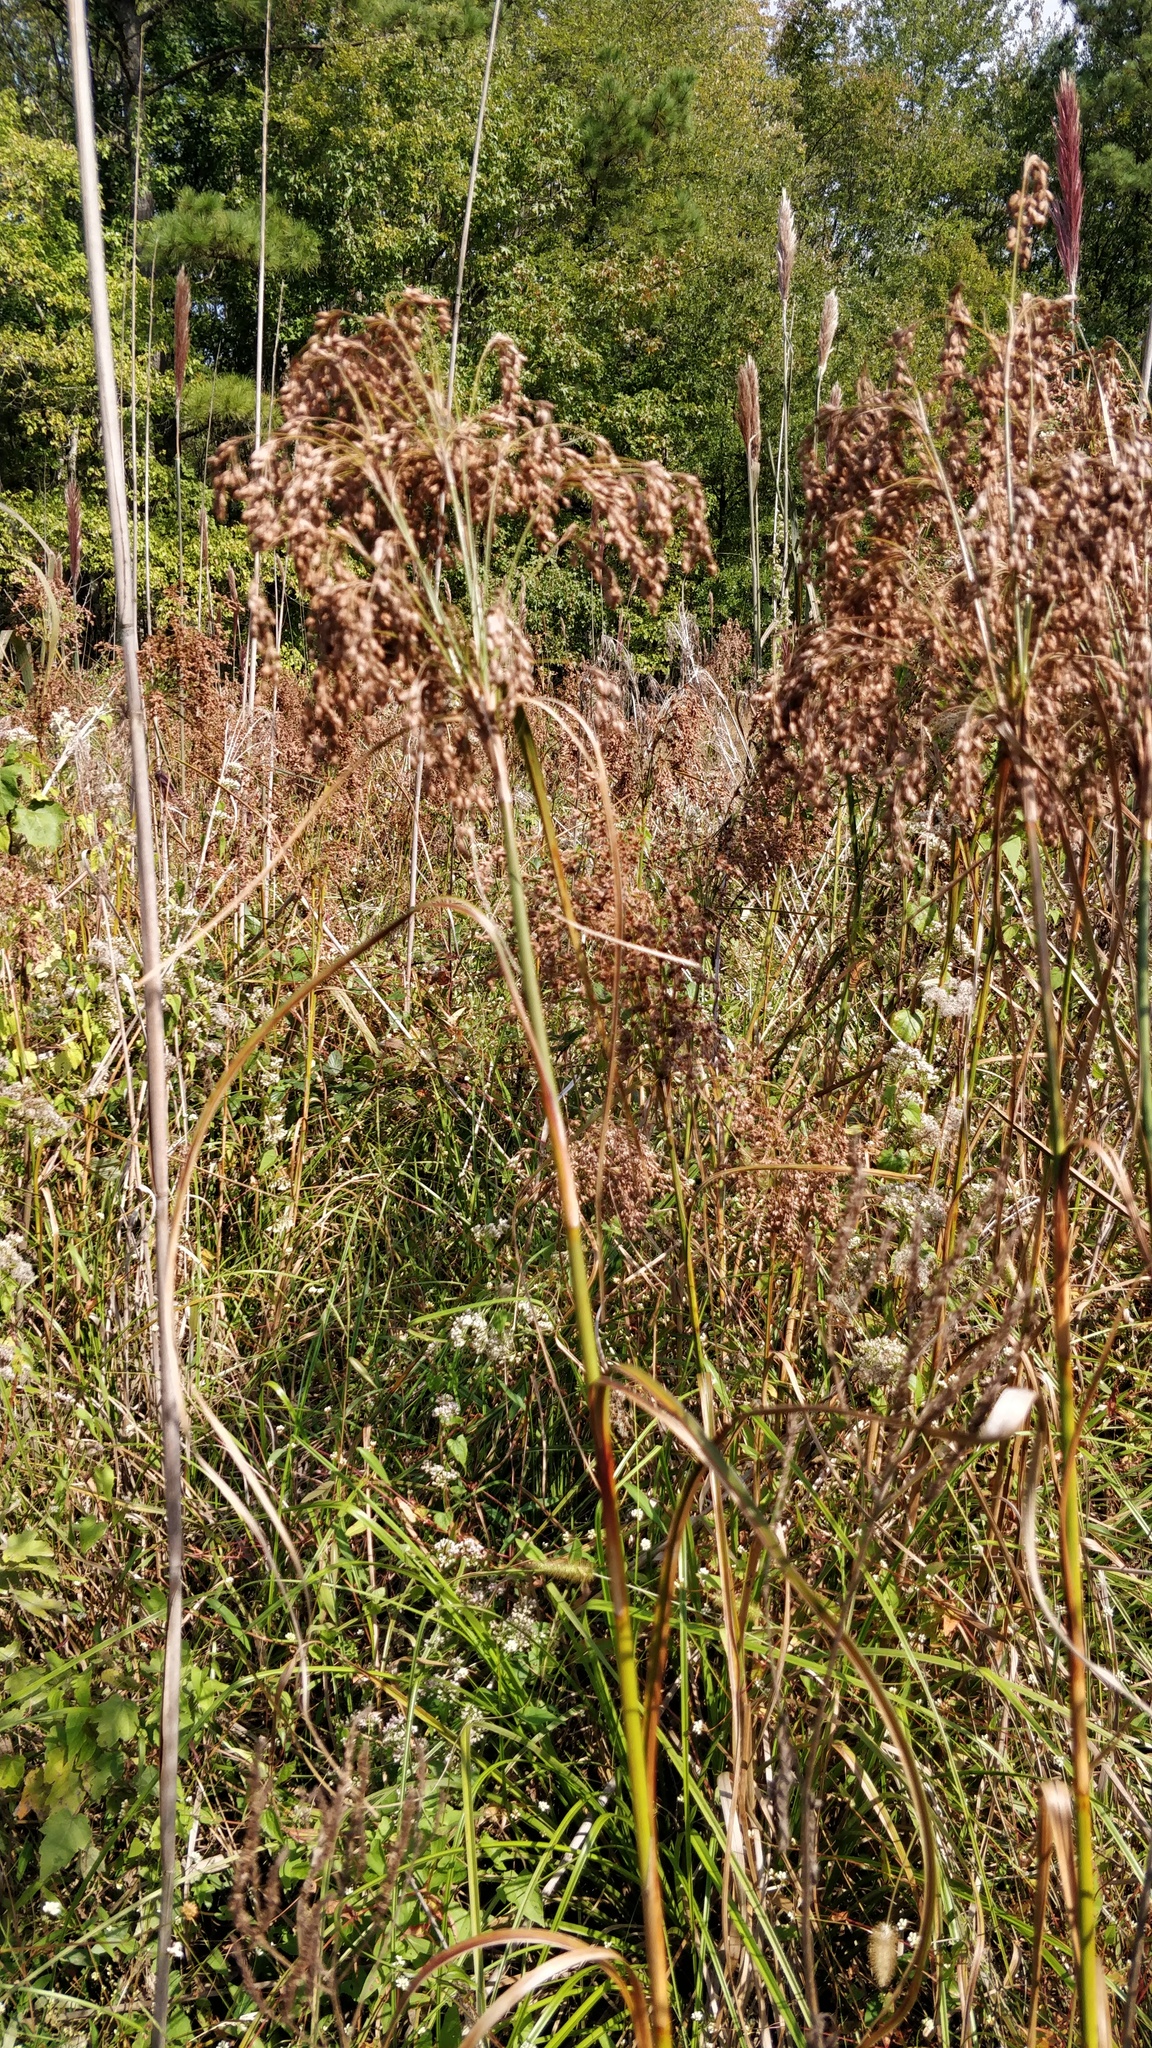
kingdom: Plantae
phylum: Tracheophyta
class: Liliopsida
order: Poales
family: Cyperaceae
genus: Scirpus
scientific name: Scirpus cyperinus
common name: Black-sheathed bulrush
